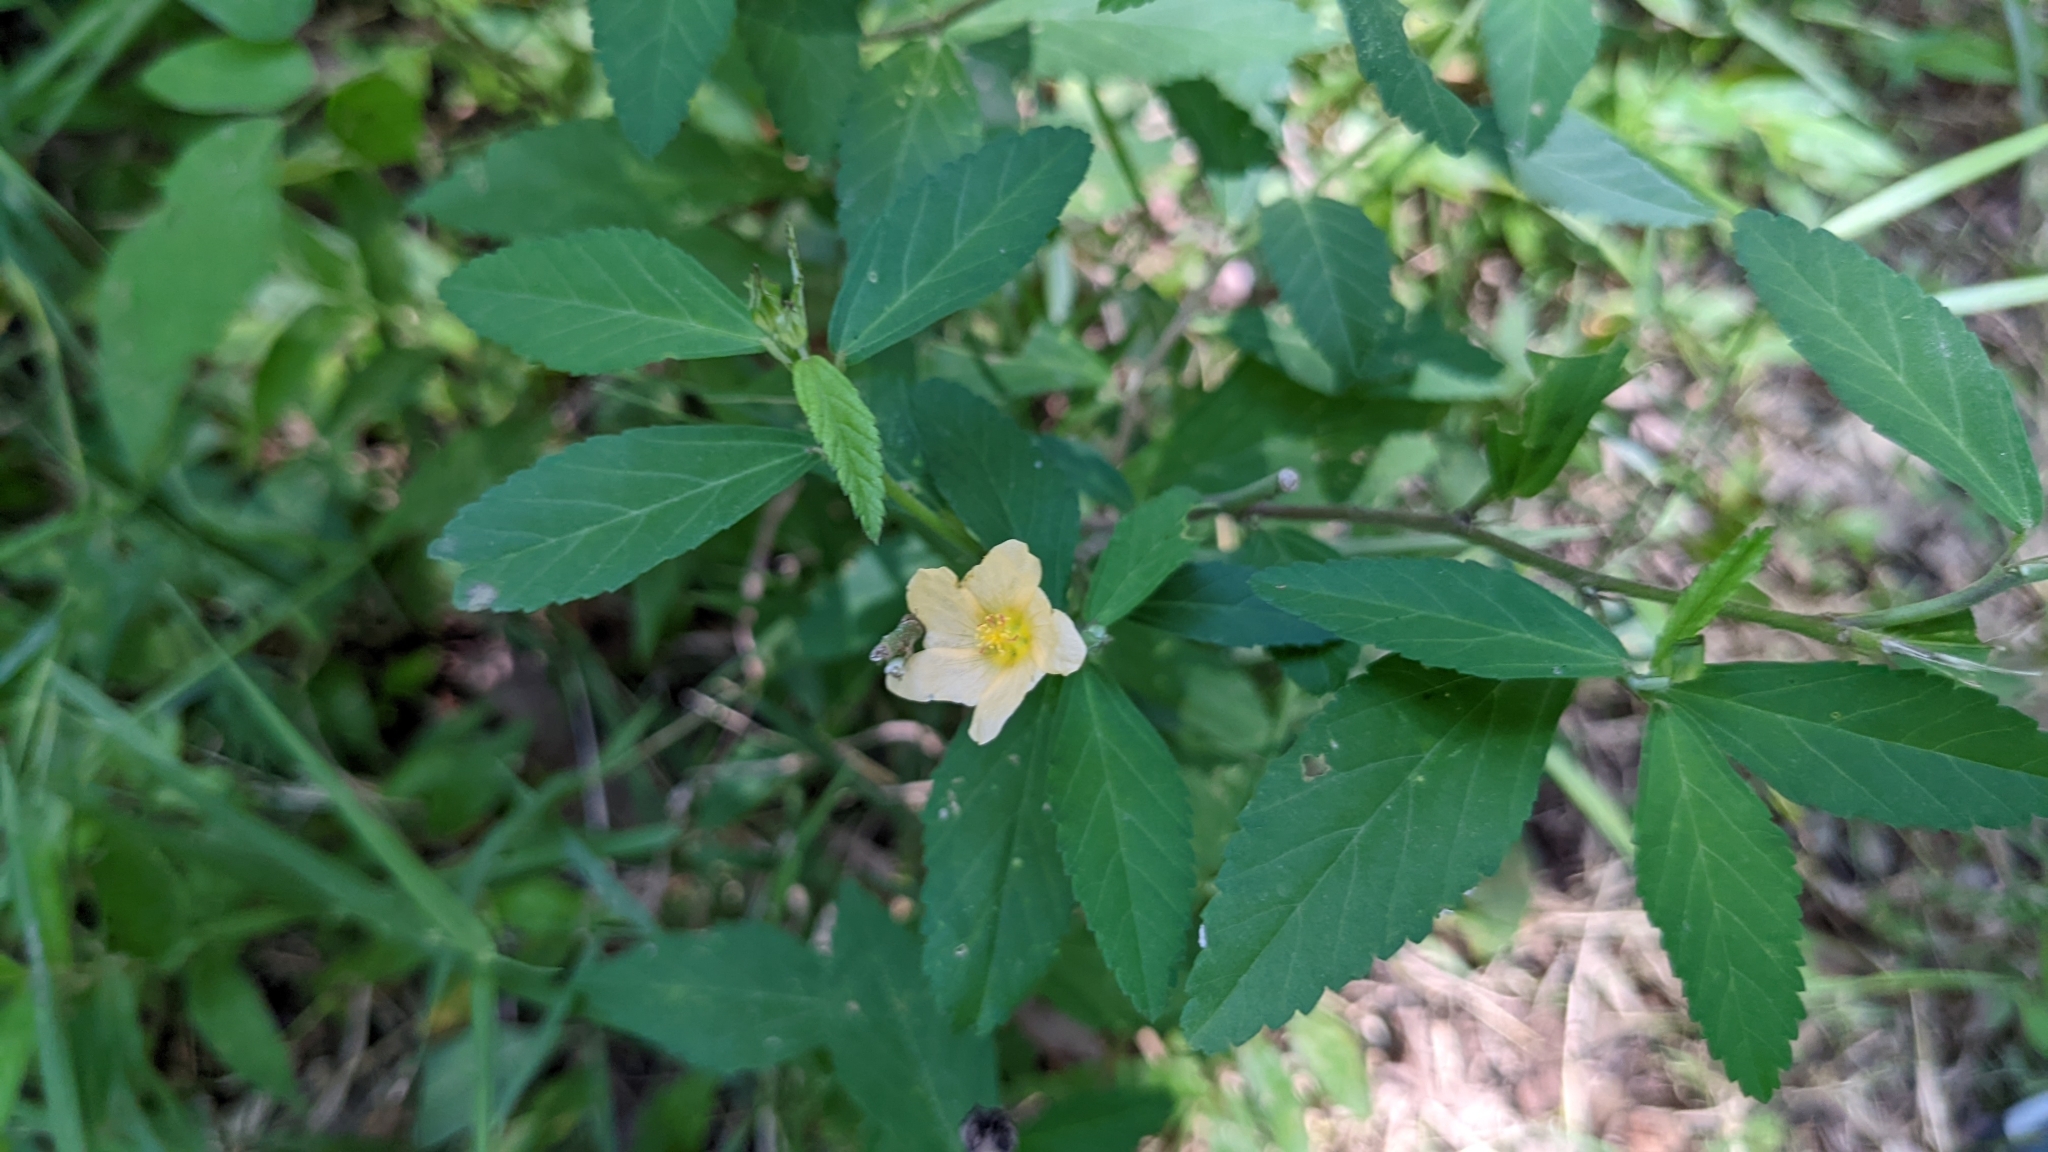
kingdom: Plantae
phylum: Tracheophyta
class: Magnoliopsida
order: Malvales
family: Malvaceae
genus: Sida
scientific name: Sida rhombifolia
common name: Queensland-hemp
